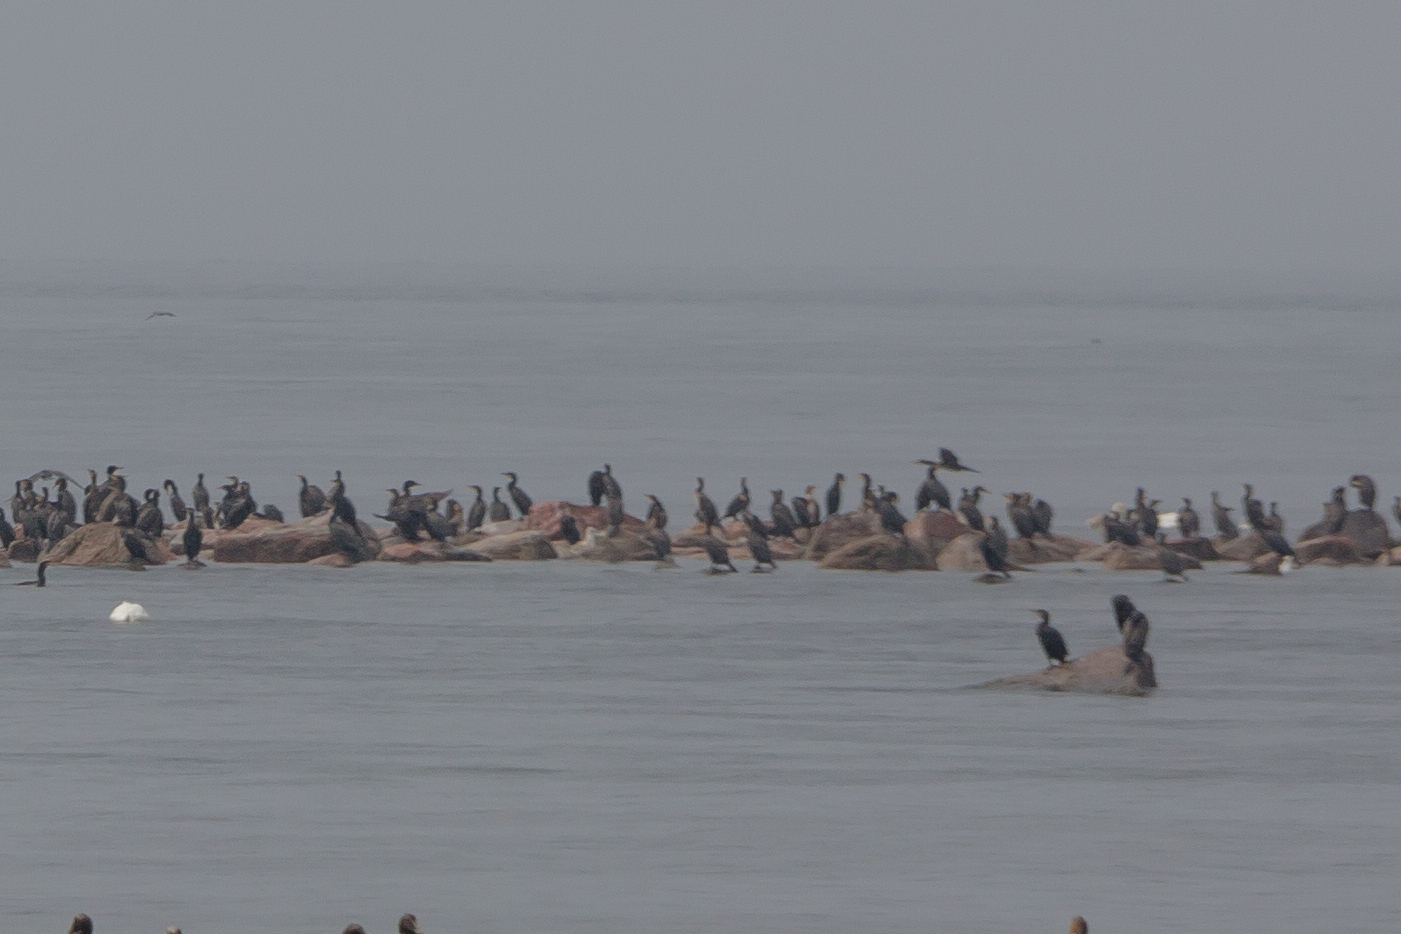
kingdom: Animalia
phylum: Chordata
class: Aves
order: Suliformes
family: Phalacrocoracidae
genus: Phalacrocorax
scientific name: Phalacrocorax carbo
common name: Great cormorant
